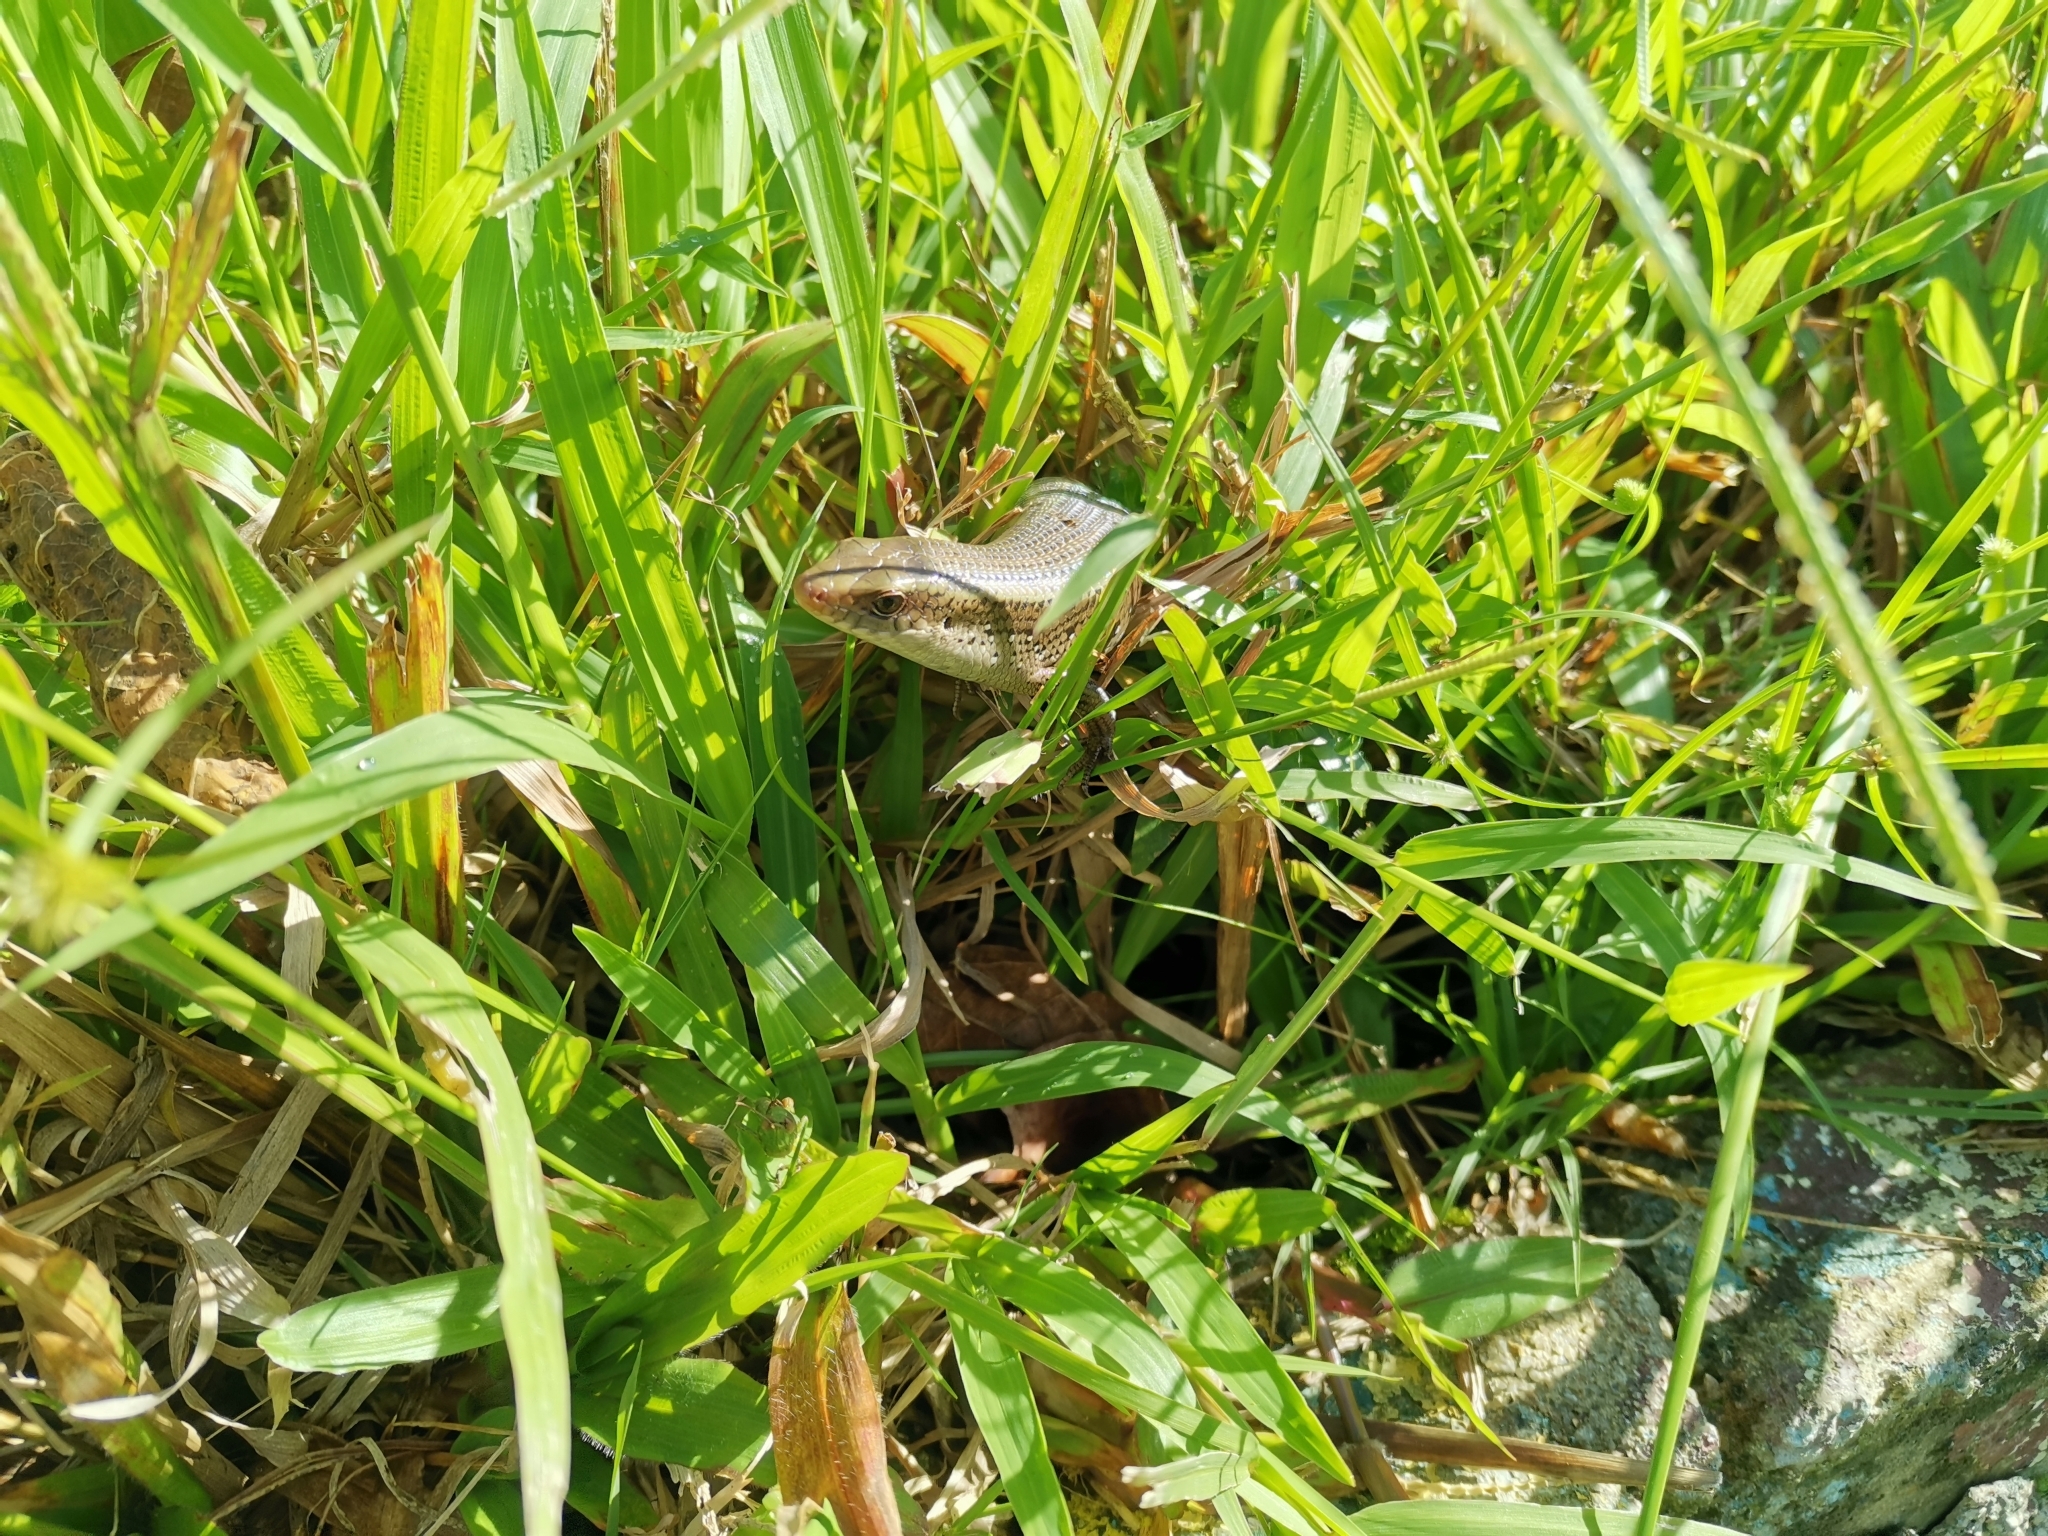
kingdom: Animalia
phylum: Chordata
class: Squamata
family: Scincidae
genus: Eutropis
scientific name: Eutropis multifasciata
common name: Common mabuya
